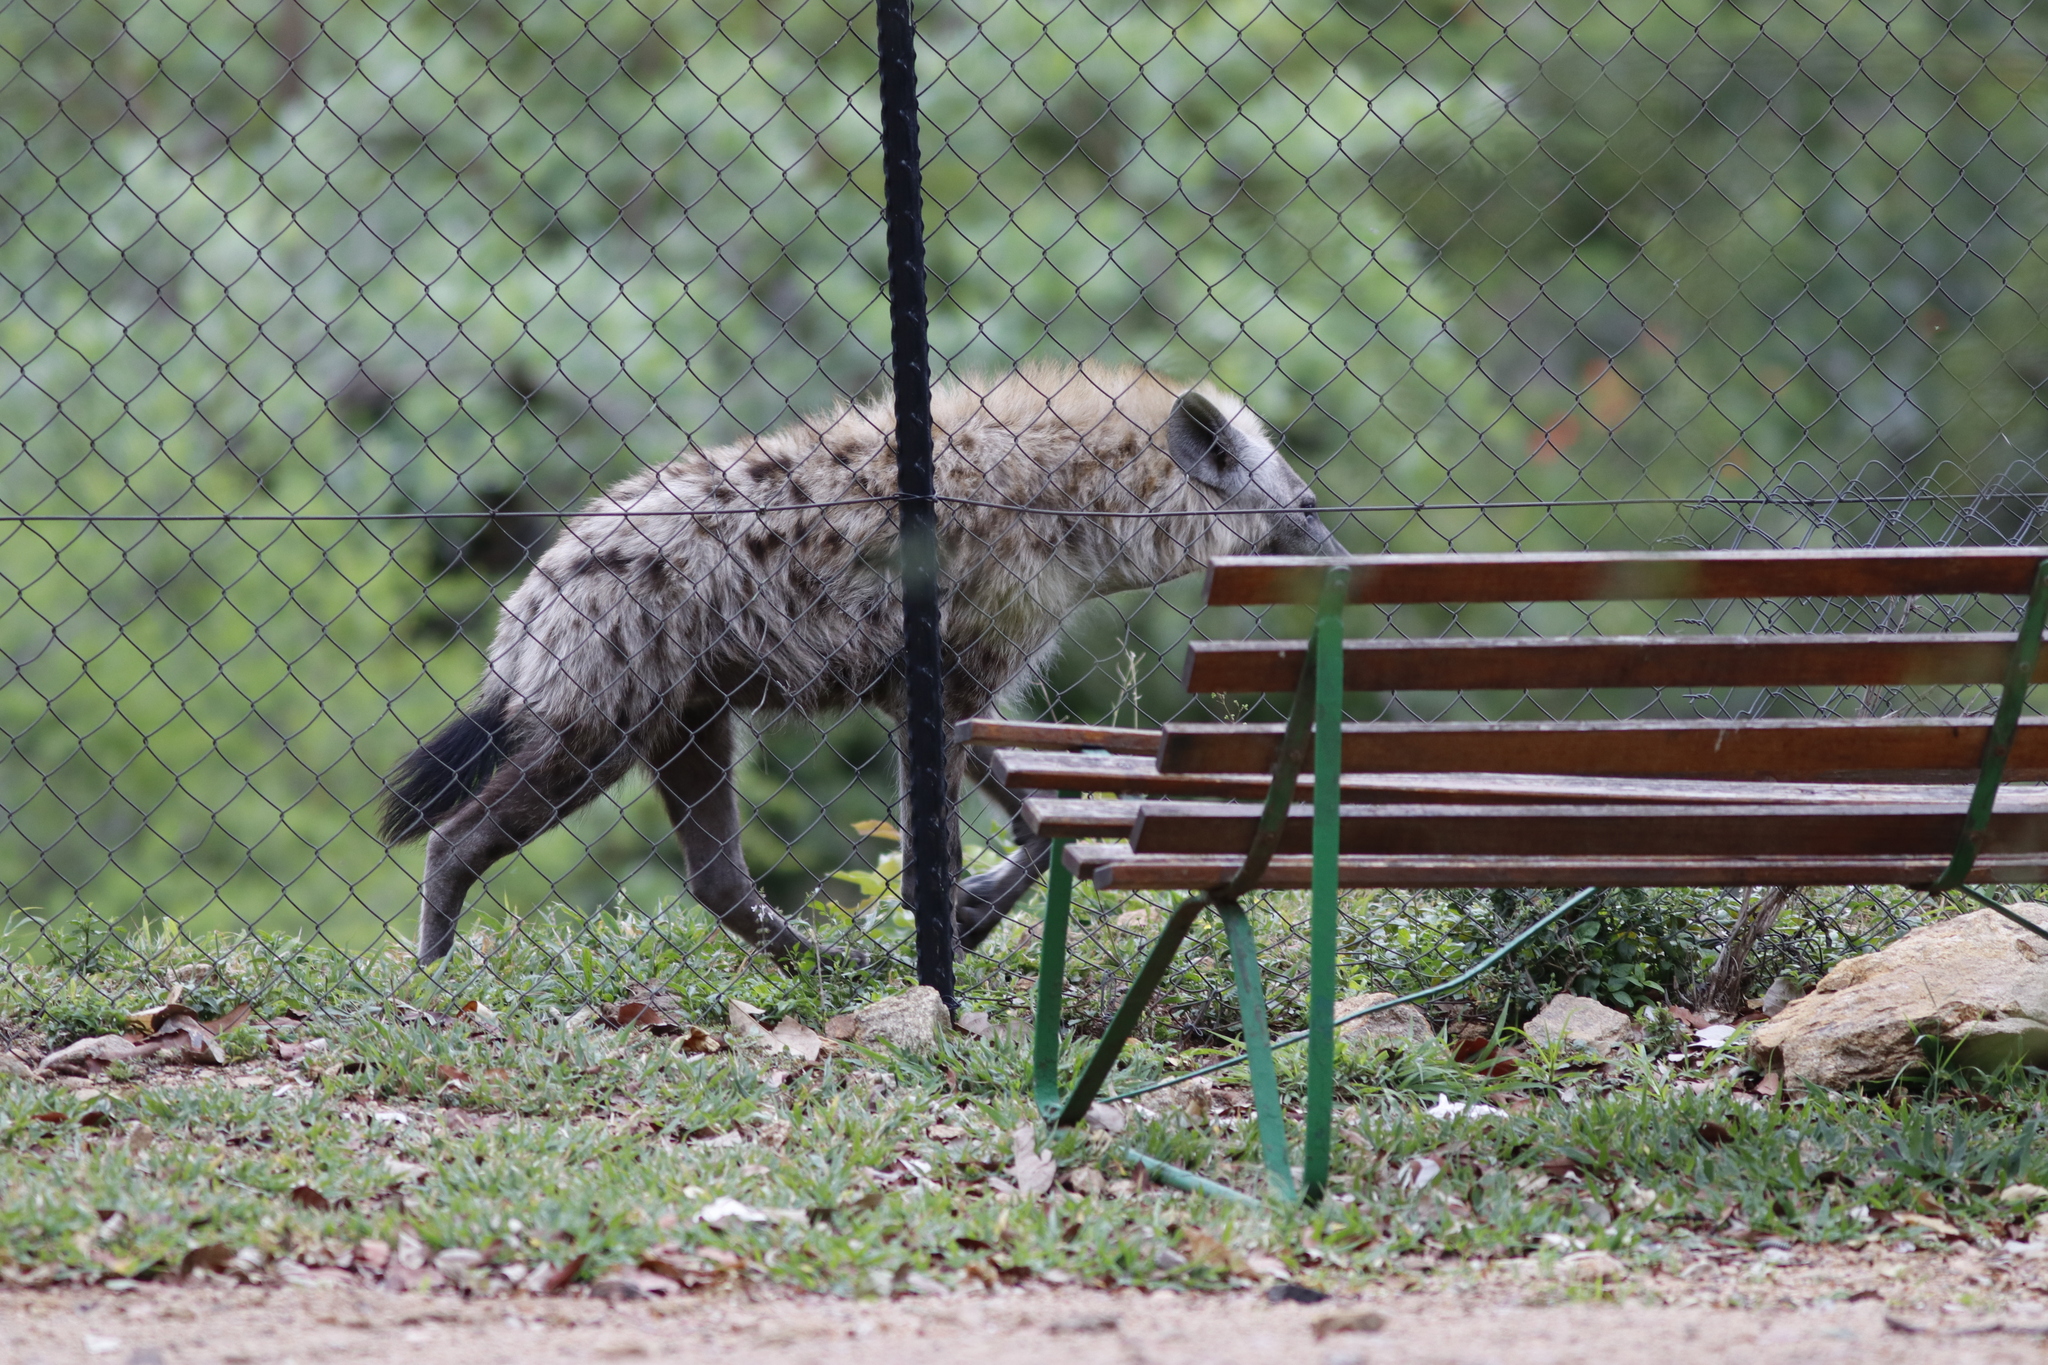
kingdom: Animalia
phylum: Chordata
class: Mammalia
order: Carnivora
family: Hyaenidae
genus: Crocuta
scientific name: Crocuta crocuta
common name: Spotted hyaena
